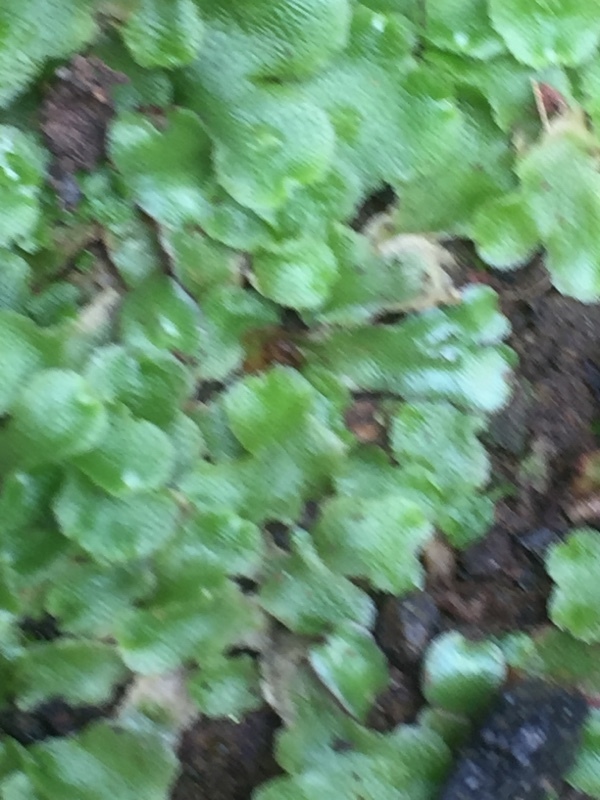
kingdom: Plantae
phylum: Marchantiophyta
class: Marchantiopsida
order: Marchantiales
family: Conocephalaceae
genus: Conocephalum
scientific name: Conocephalum conicum
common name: Great scented liverwort
